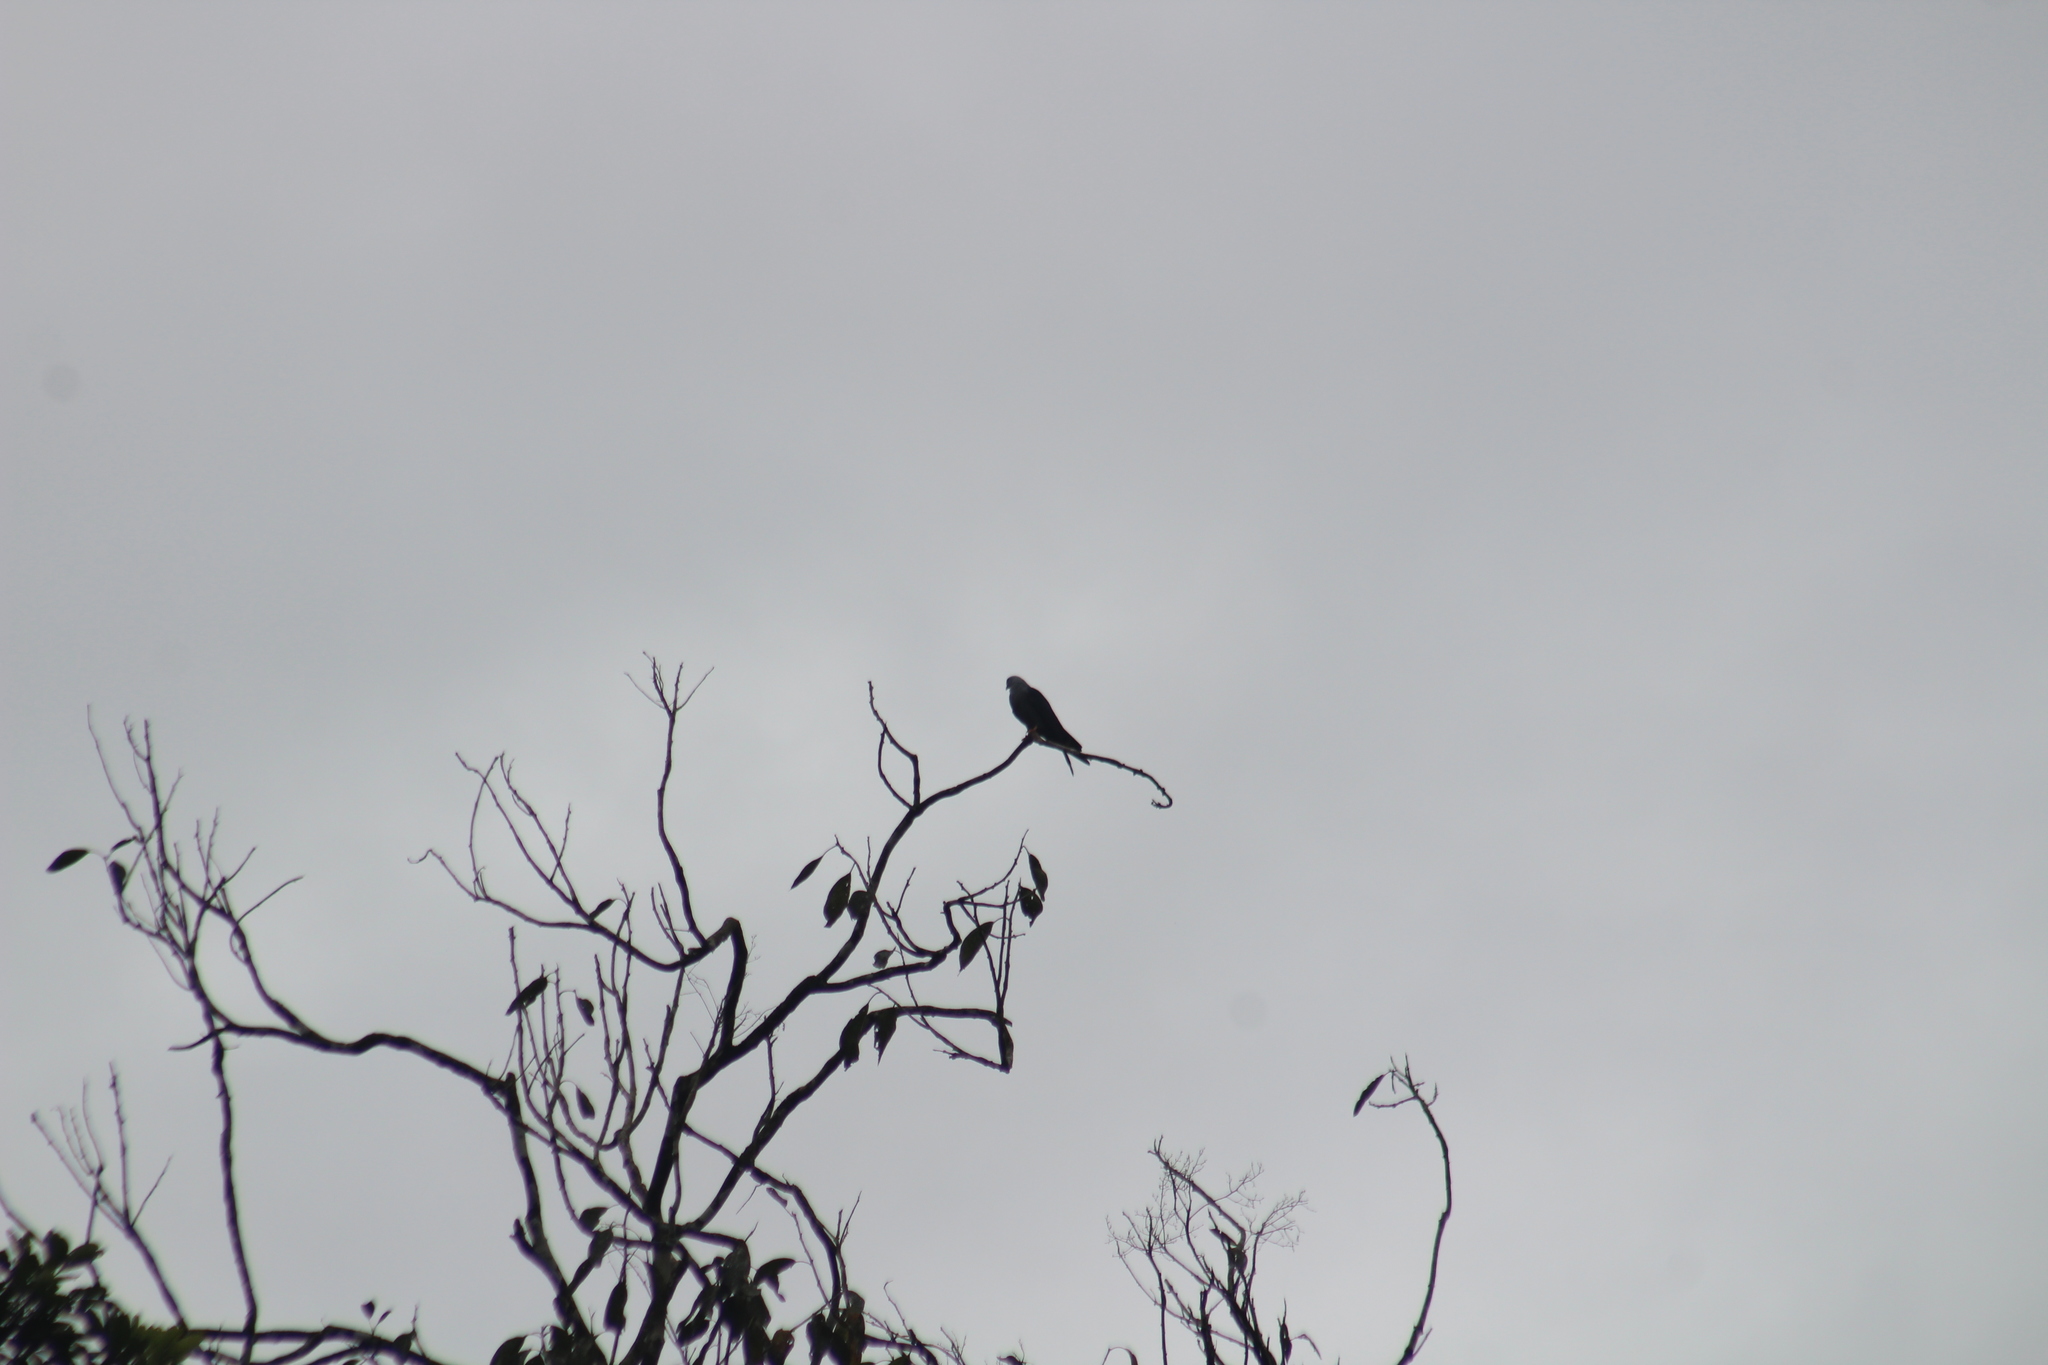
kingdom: Animalia
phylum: Chordata
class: Aves
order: Accipitriformes
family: Accipitridae
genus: Ictinia
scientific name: Ictinia plumbea
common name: Plumbeous kite
